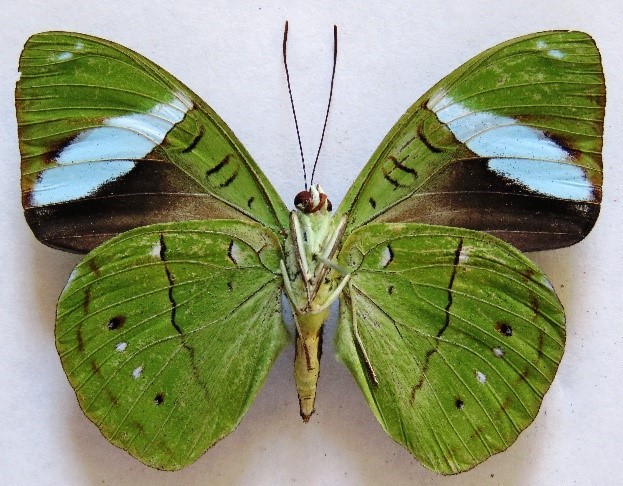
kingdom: Animalia
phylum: Arthropoda
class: Insecta
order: Lepidoptera
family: Nymphalidae
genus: Nessaea
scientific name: Nessaea aglaura
